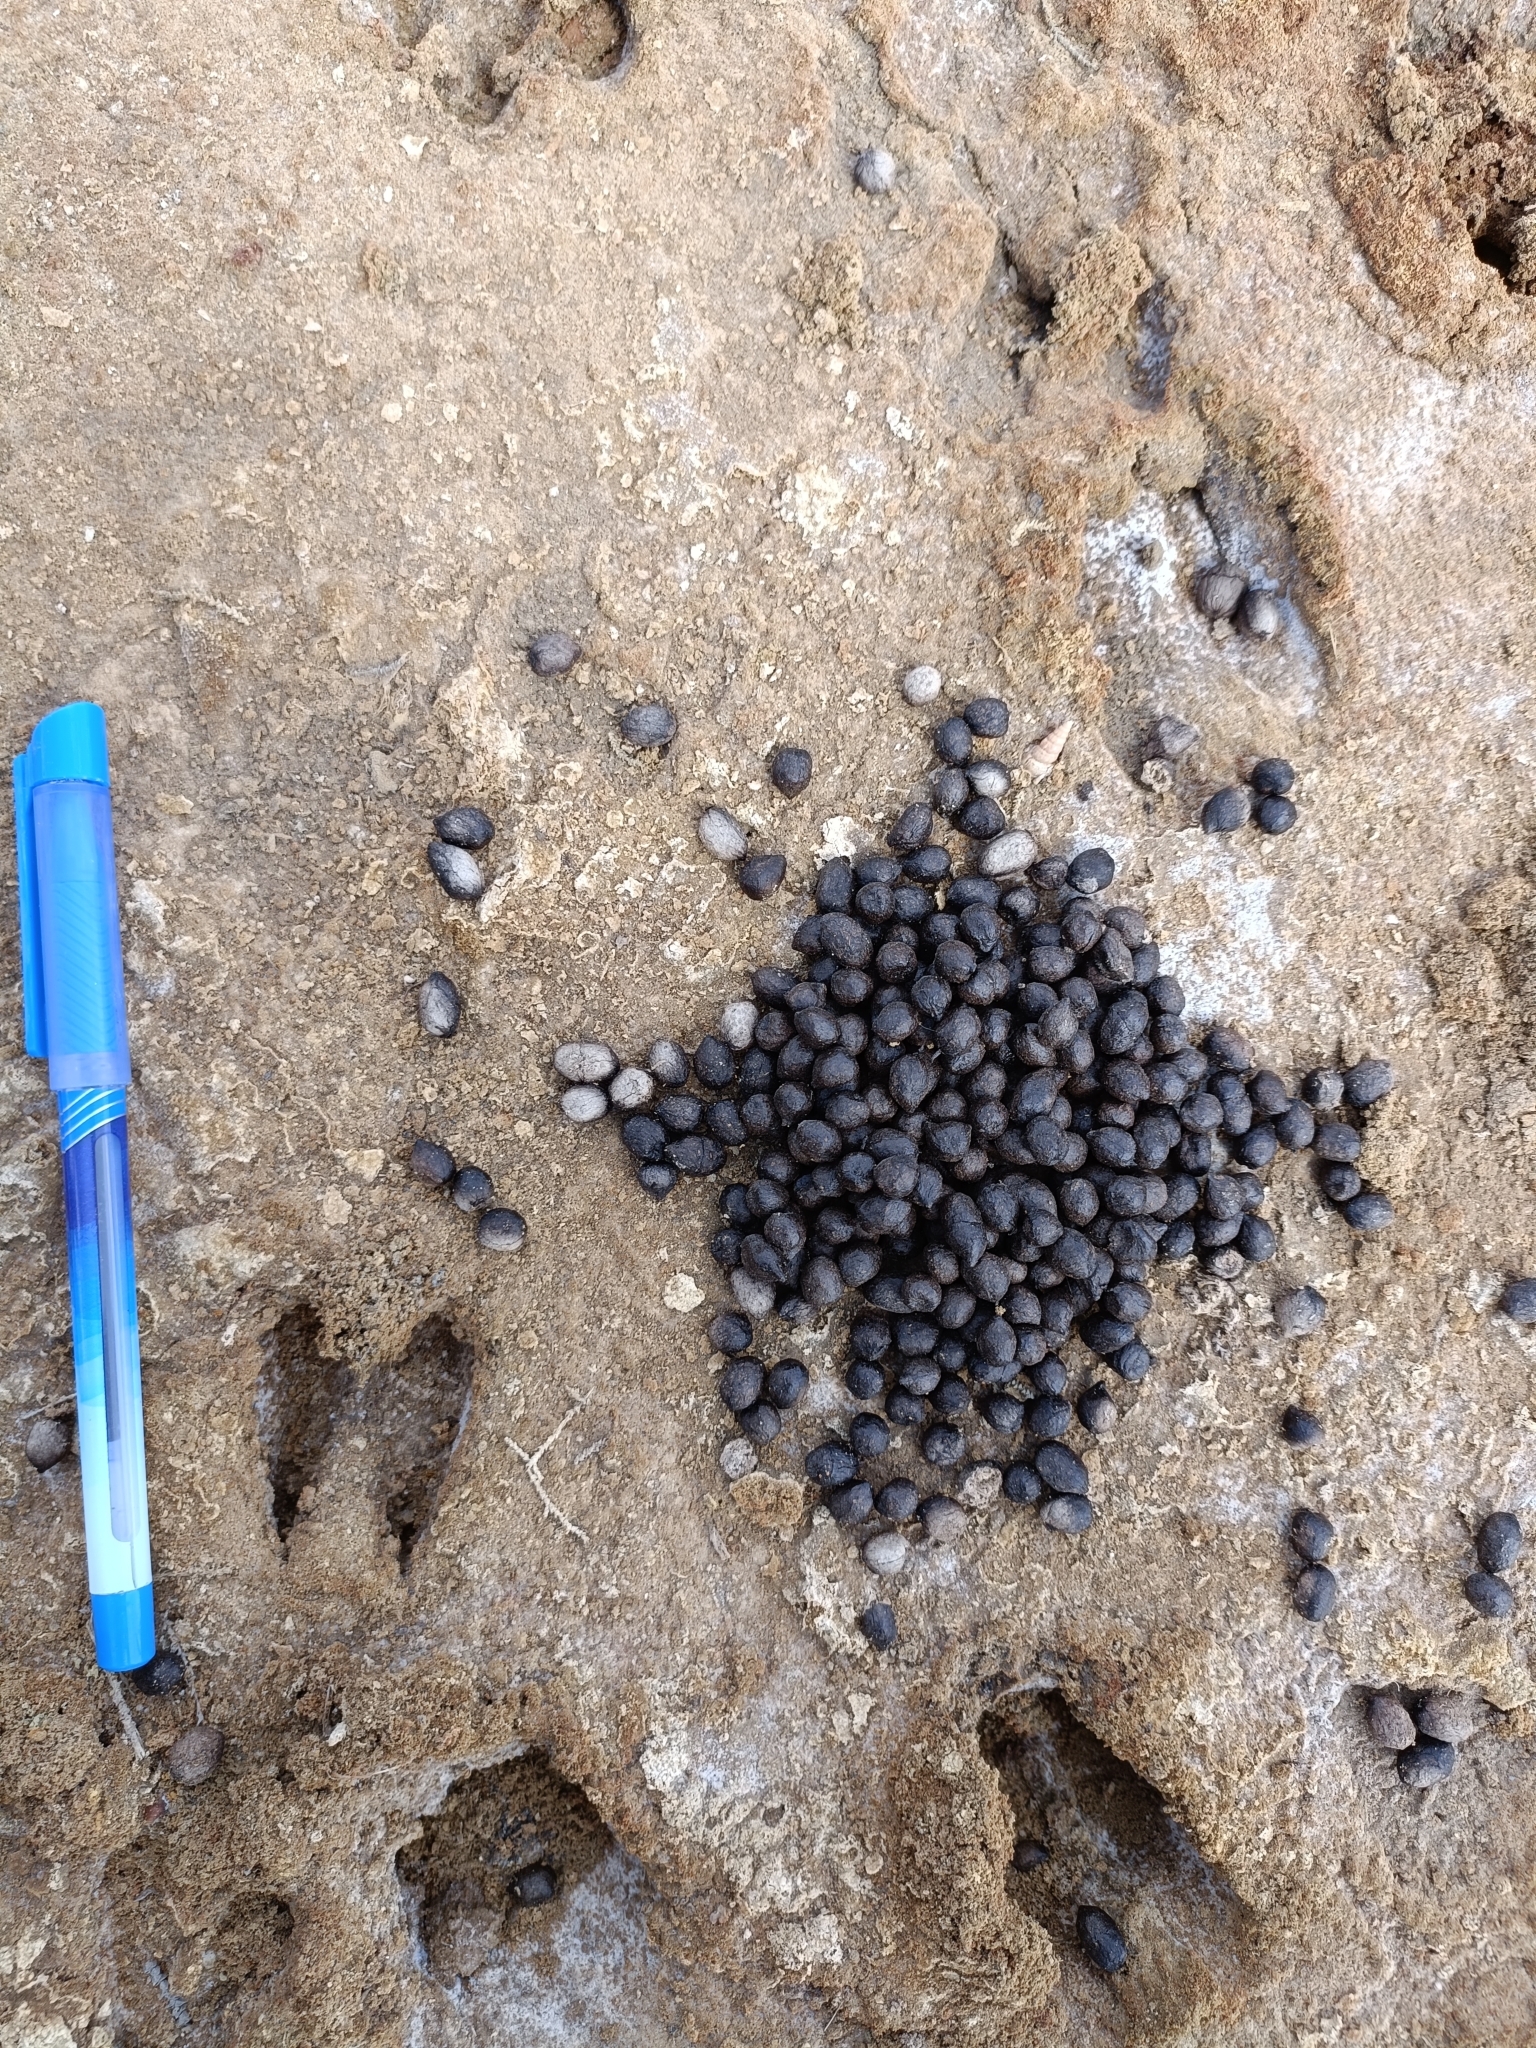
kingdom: Animalia
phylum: Chordata
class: Mammalia
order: Artiodactyla
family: Bovidae
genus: Gazella
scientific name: Gazella bennettii
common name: Indian gazelle
